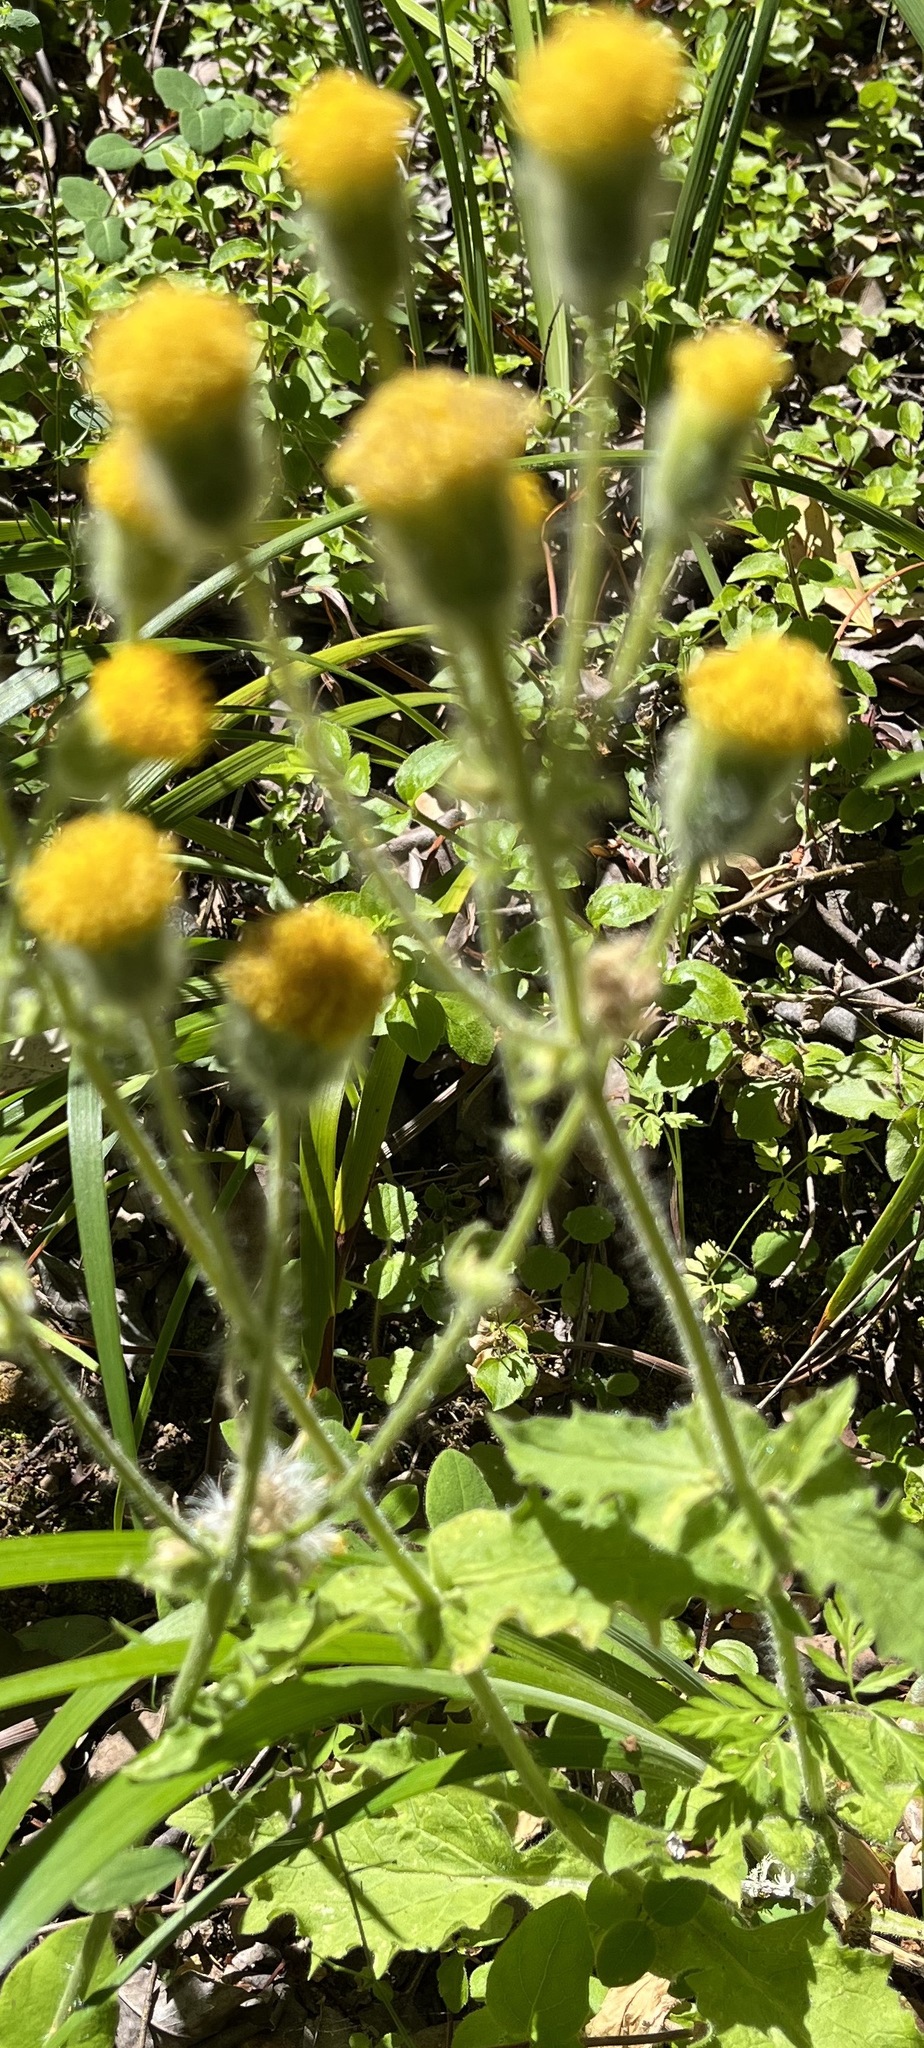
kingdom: Plantae
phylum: Tracheophyta
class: Magnoliopsida
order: Asterales
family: Asteraceae
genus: Arnica
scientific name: Arnica discoidea
